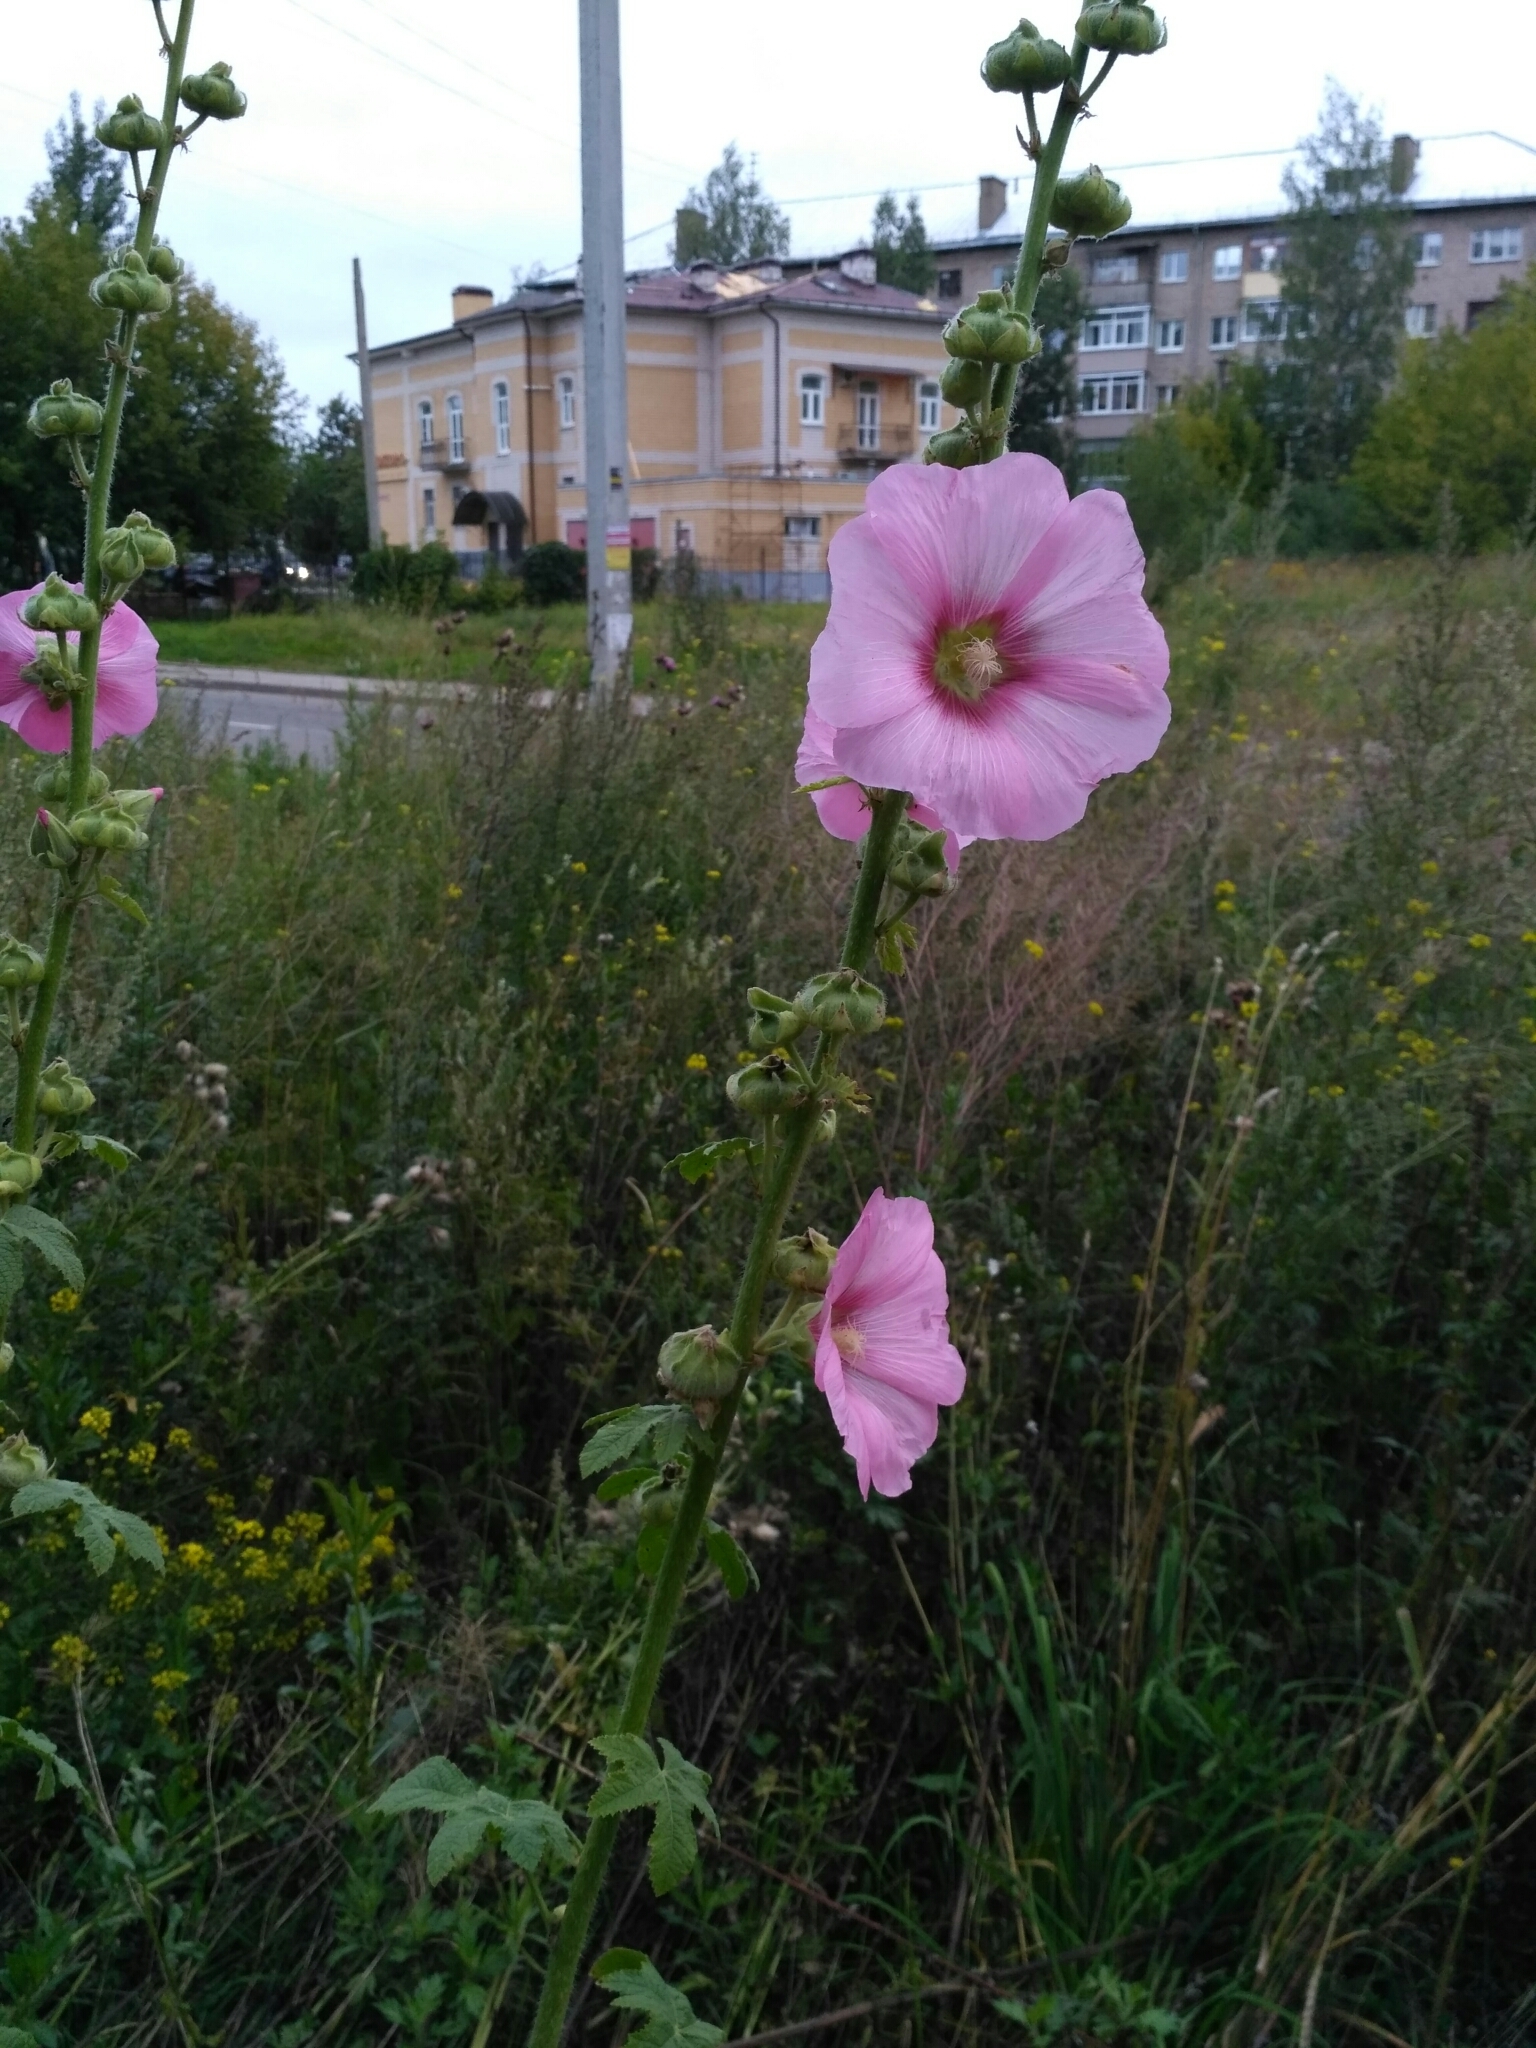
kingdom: Plantae
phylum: Tracheophyta
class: Magnoliopsida
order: Malvales
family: Malvaceae
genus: Alcea
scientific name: Alcea rosea
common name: Hollyhock
